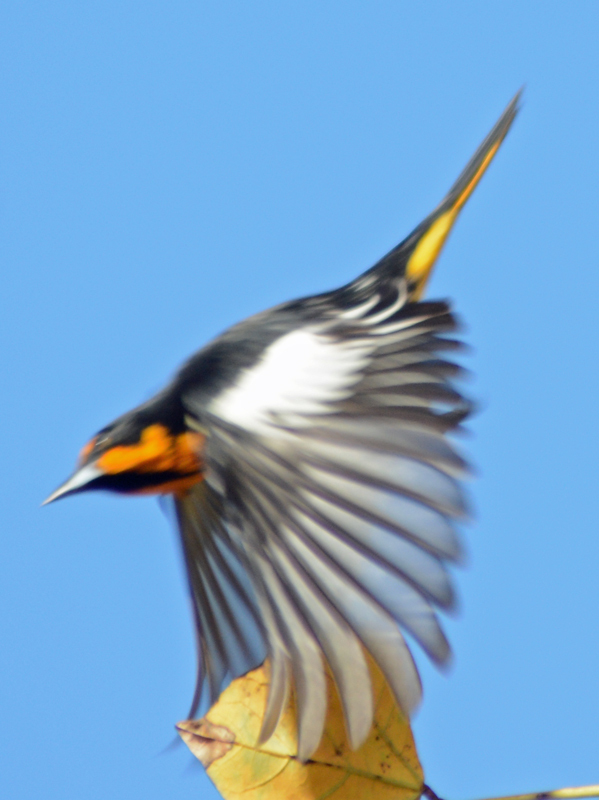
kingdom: Animalia
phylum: Chordata
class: Aves
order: Passeriformes
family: Icteridae
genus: Icterus
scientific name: Icterus abeillei
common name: Black-backed oriole
